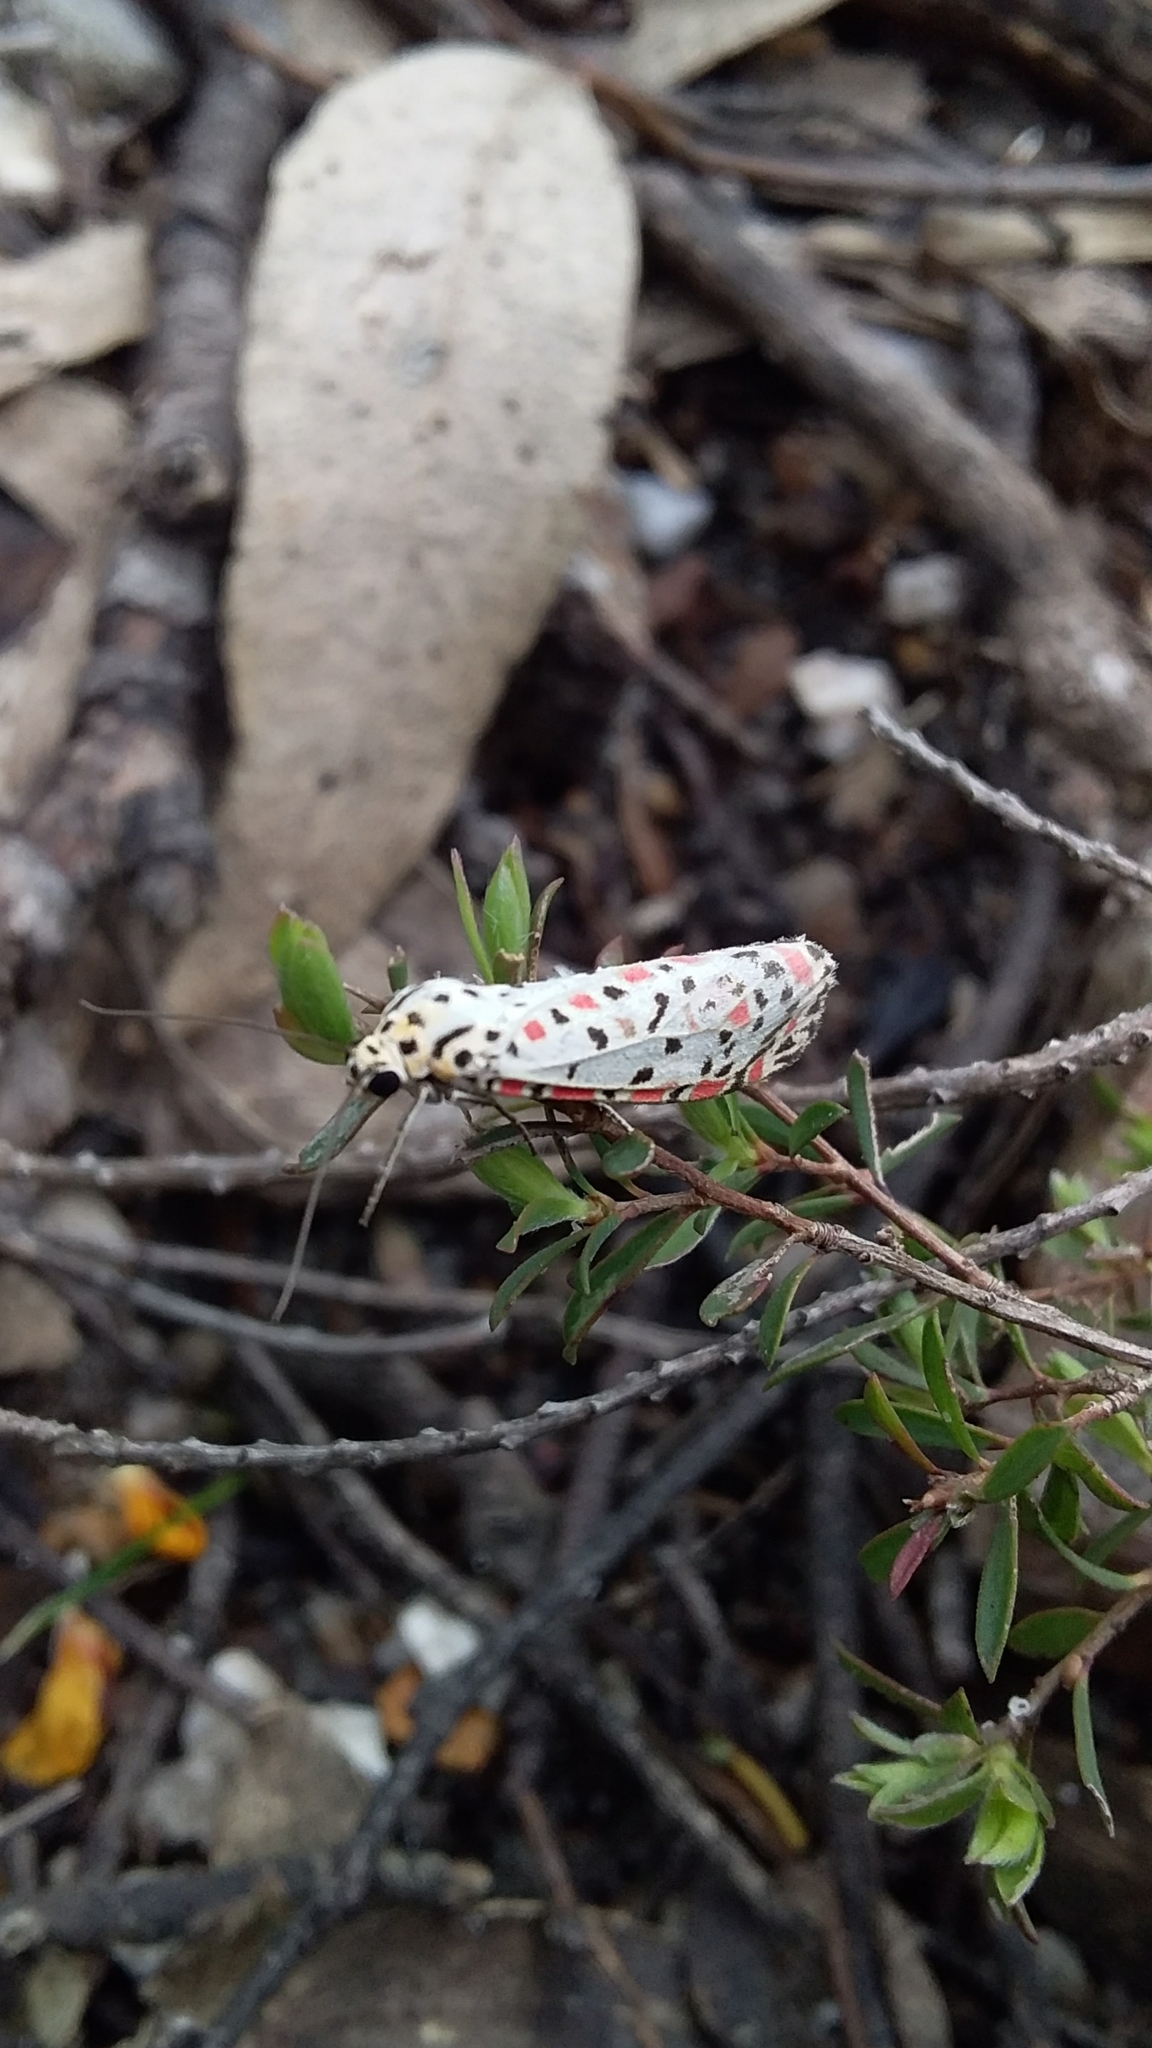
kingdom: Animalia
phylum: Arthropoda
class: Insecta
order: Lepidoptera
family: Erebidae
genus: Utetheisa
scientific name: Utetheisa pulchelloides
